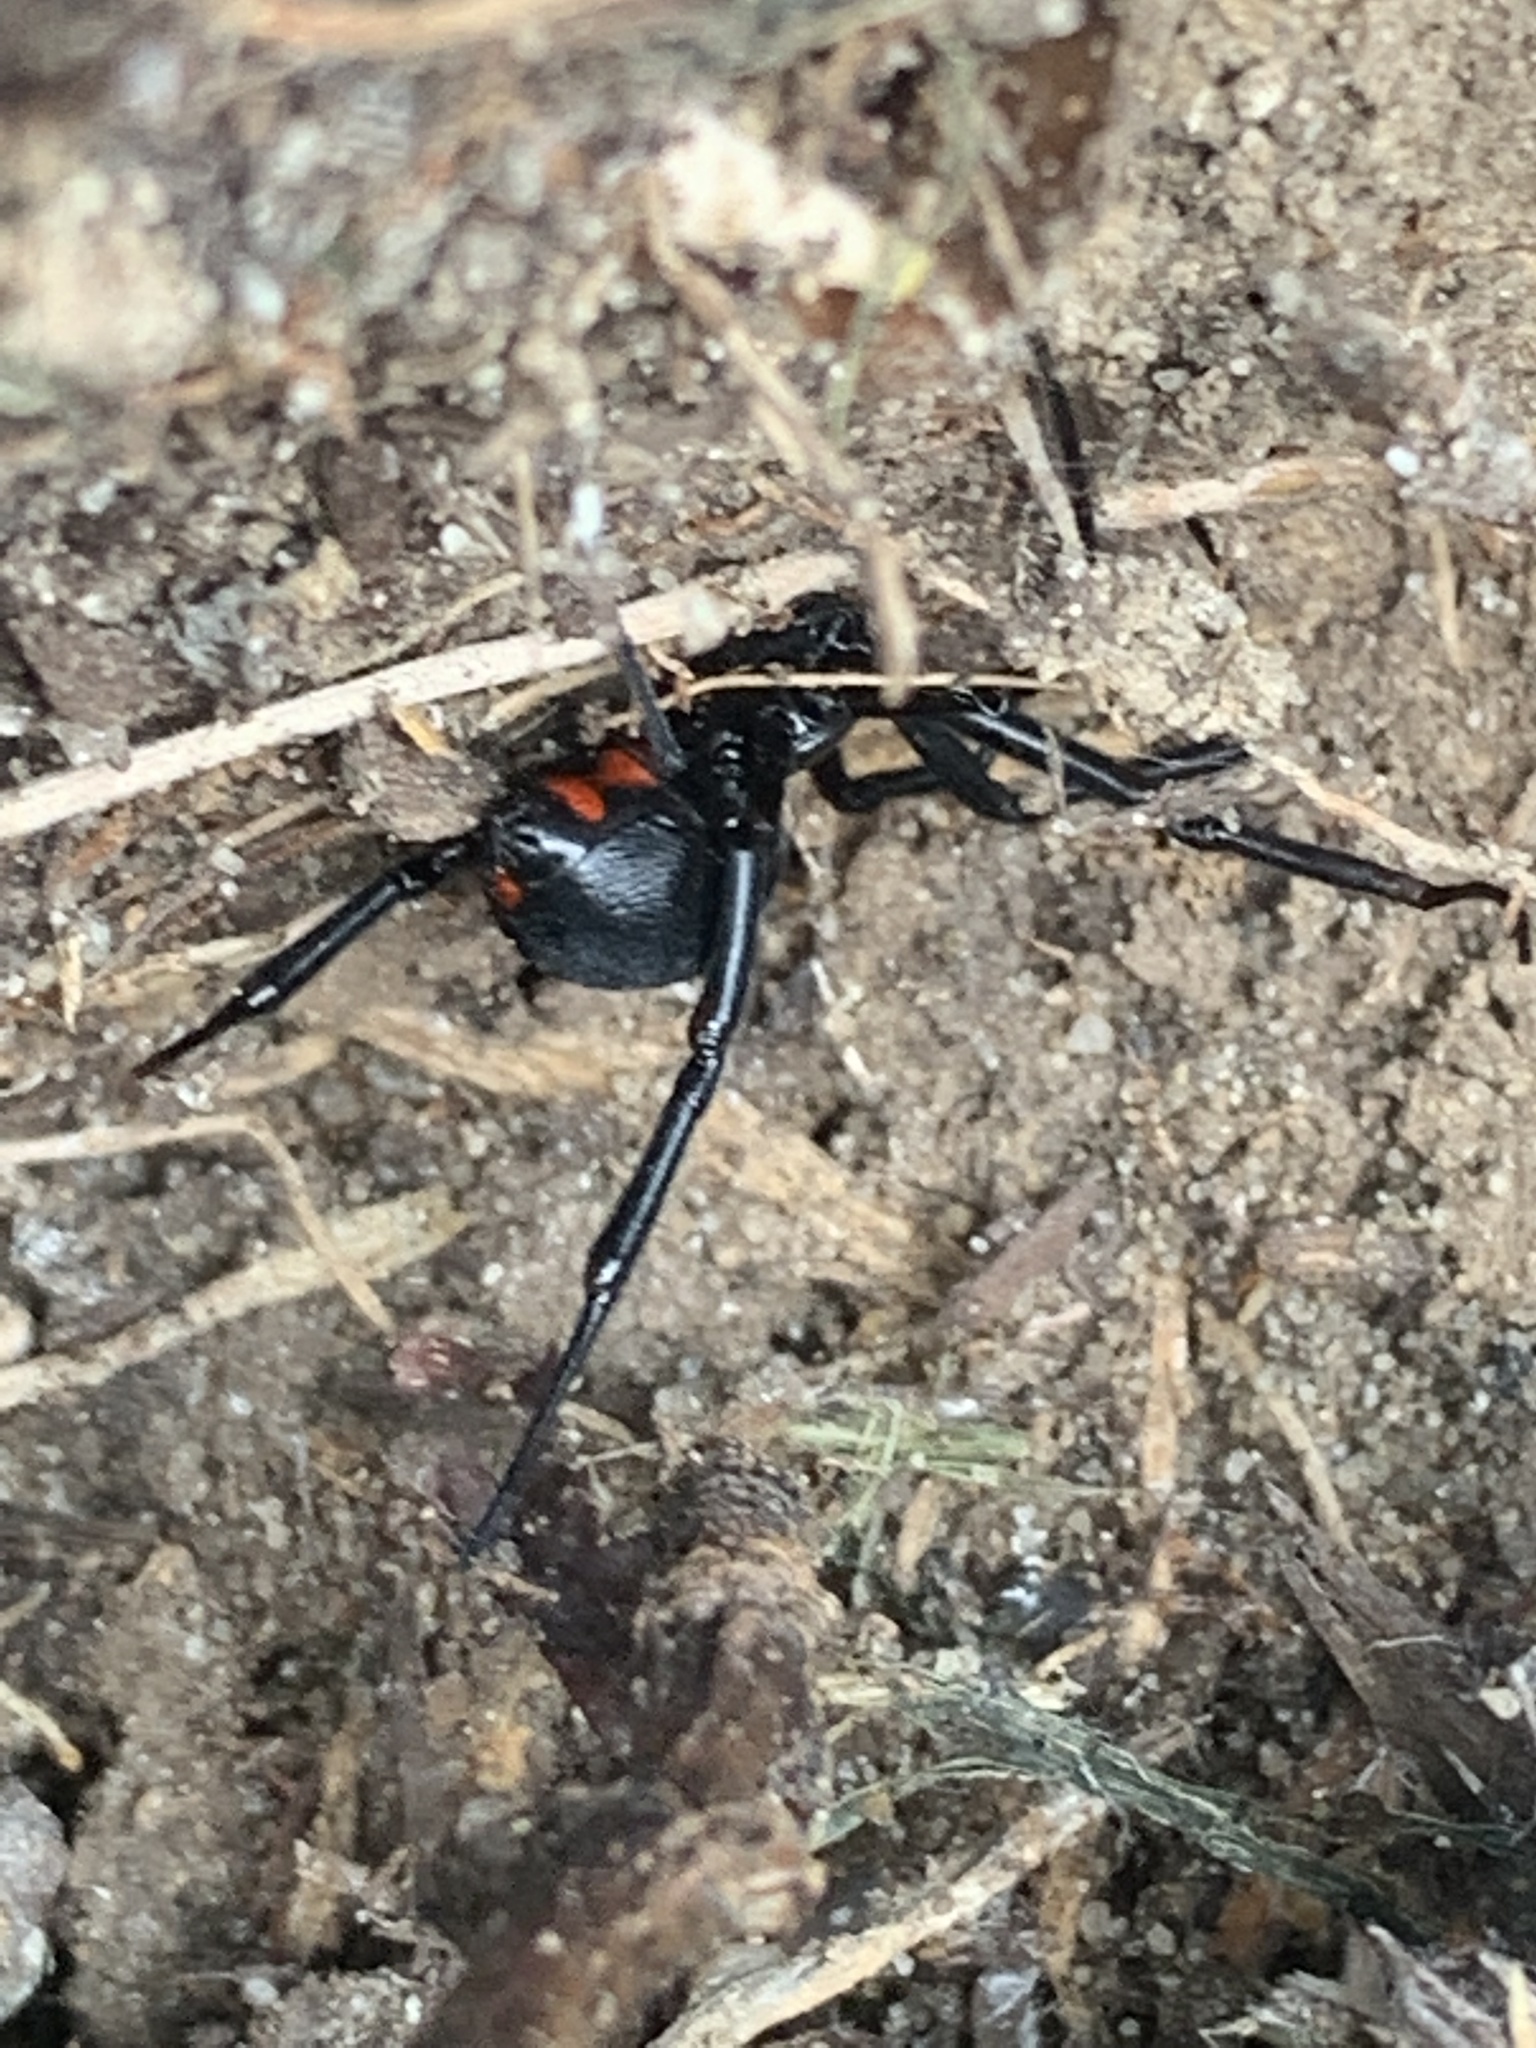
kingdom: Animalia
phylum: Arthropoda
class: Arachnida
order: Araneae
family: Theridiidae
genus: Latrodectus
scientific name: Latrodectus mactans
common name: Cobweb spiders
